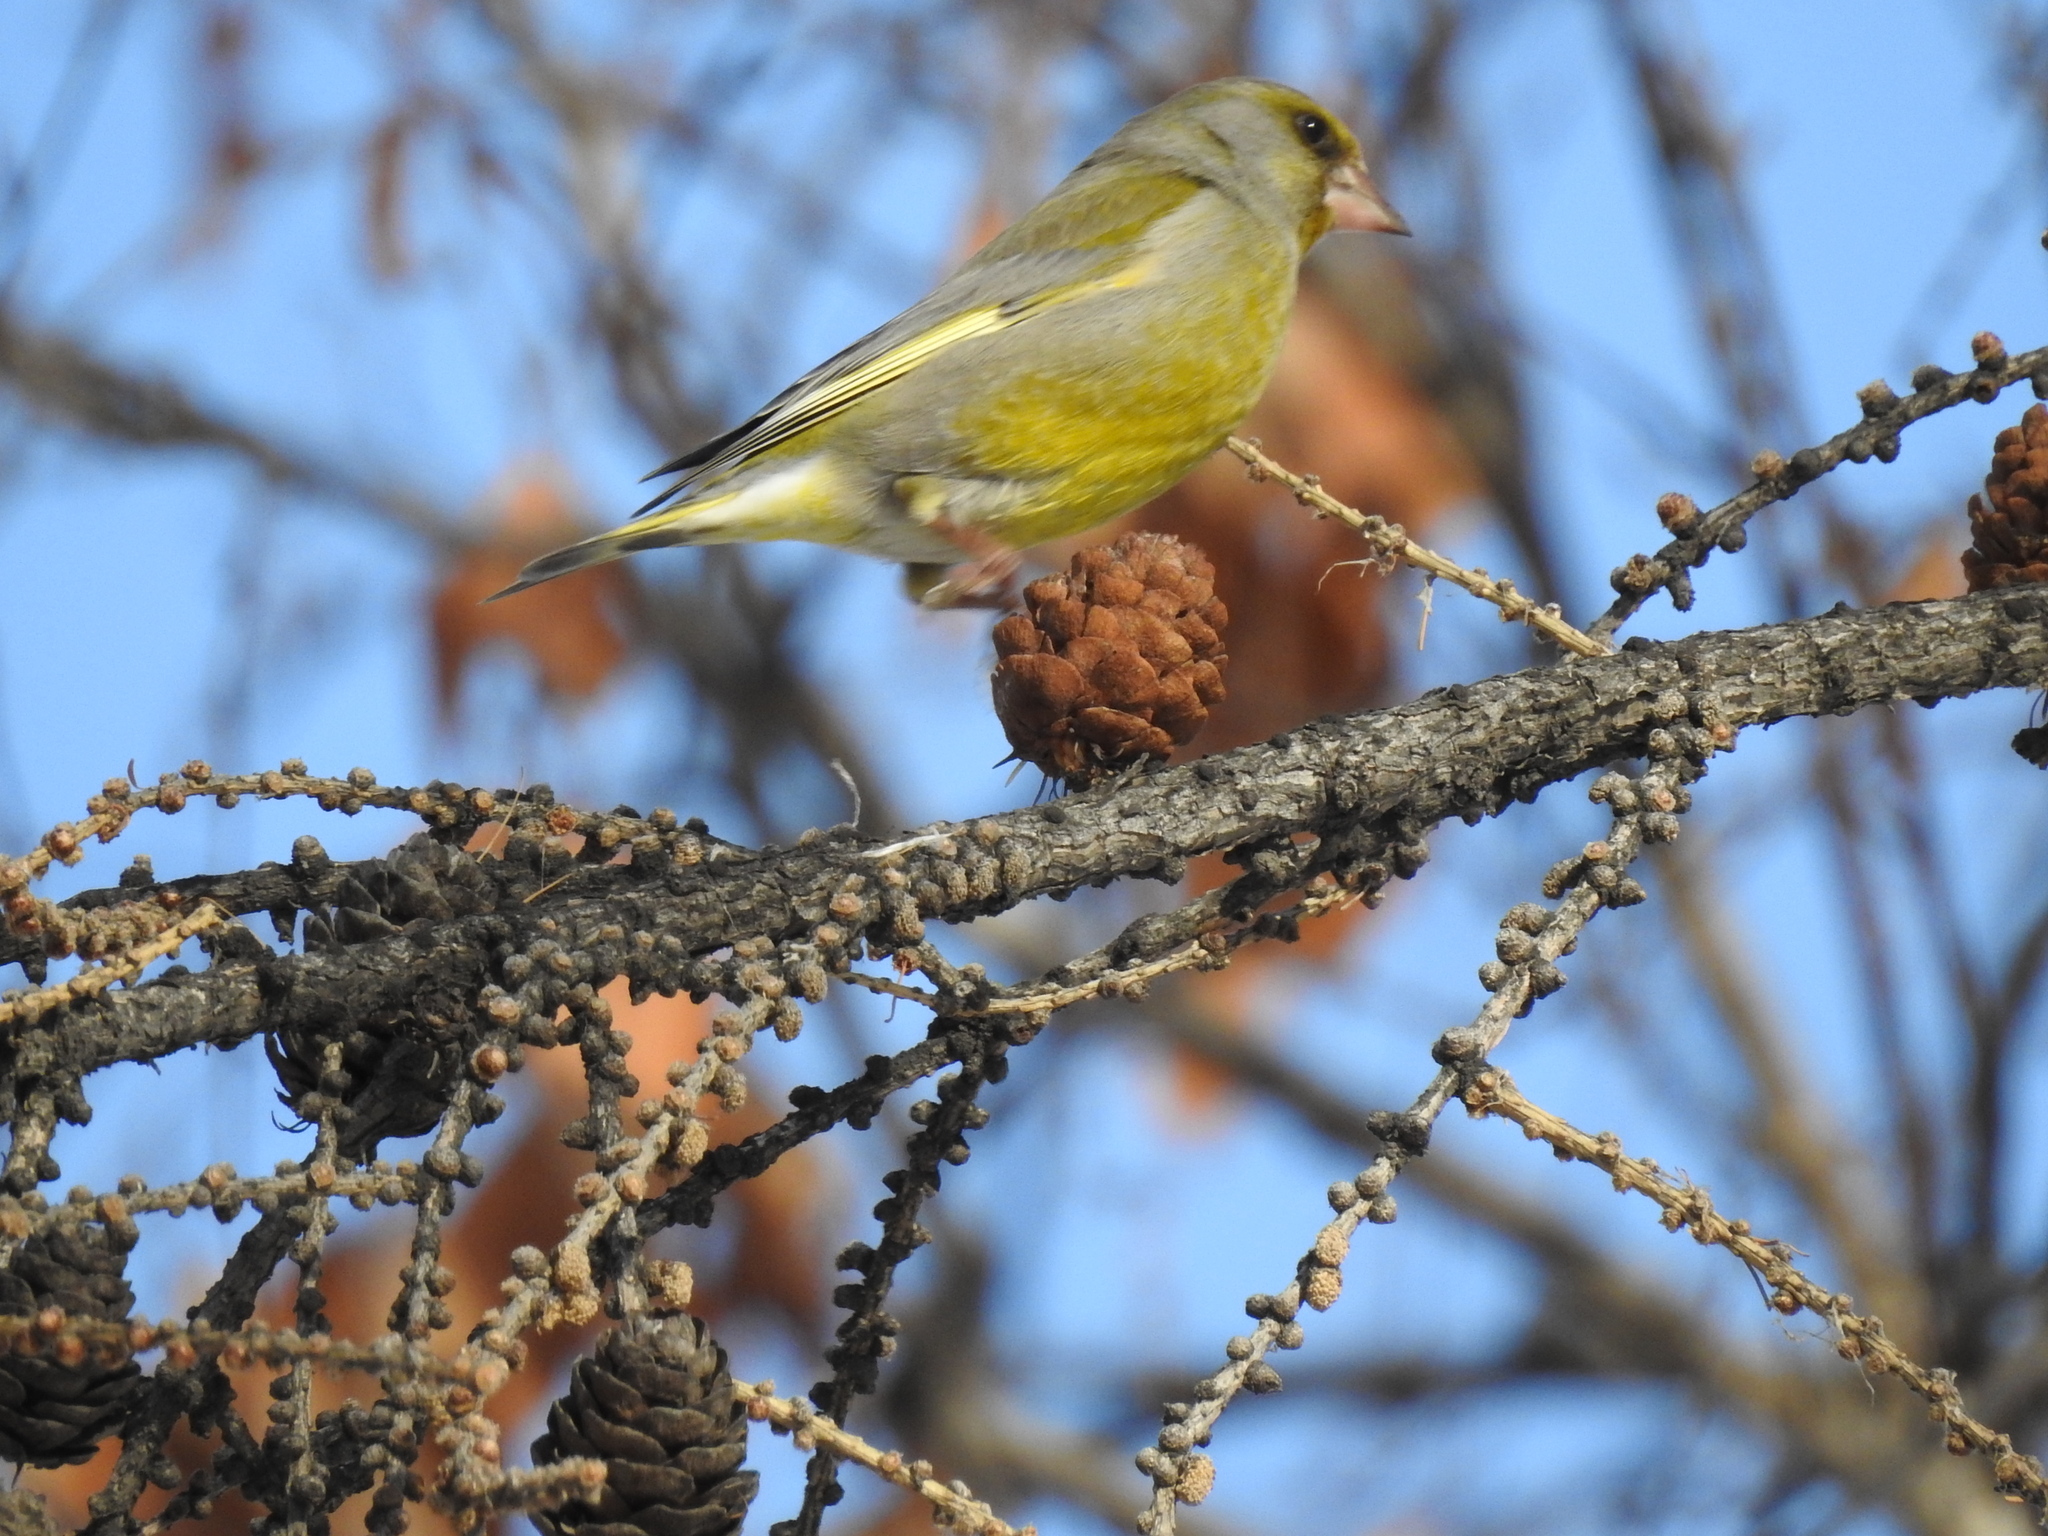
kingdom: Plantae
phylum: Tracheophyta
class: Liliopsida
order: Poales
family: Poaceae
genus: Chloris
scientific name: Chloris chloris
